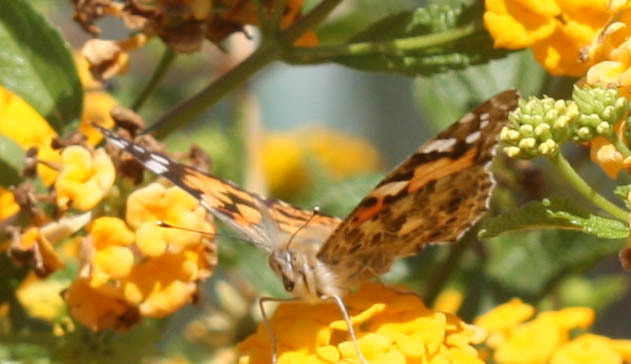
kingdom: Animalia
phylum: Arthropoda
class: Insecta
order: Lepidoptera
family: Nymphalidae
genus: Vanessa
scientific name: Vanessa cardui
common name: Painted lady
